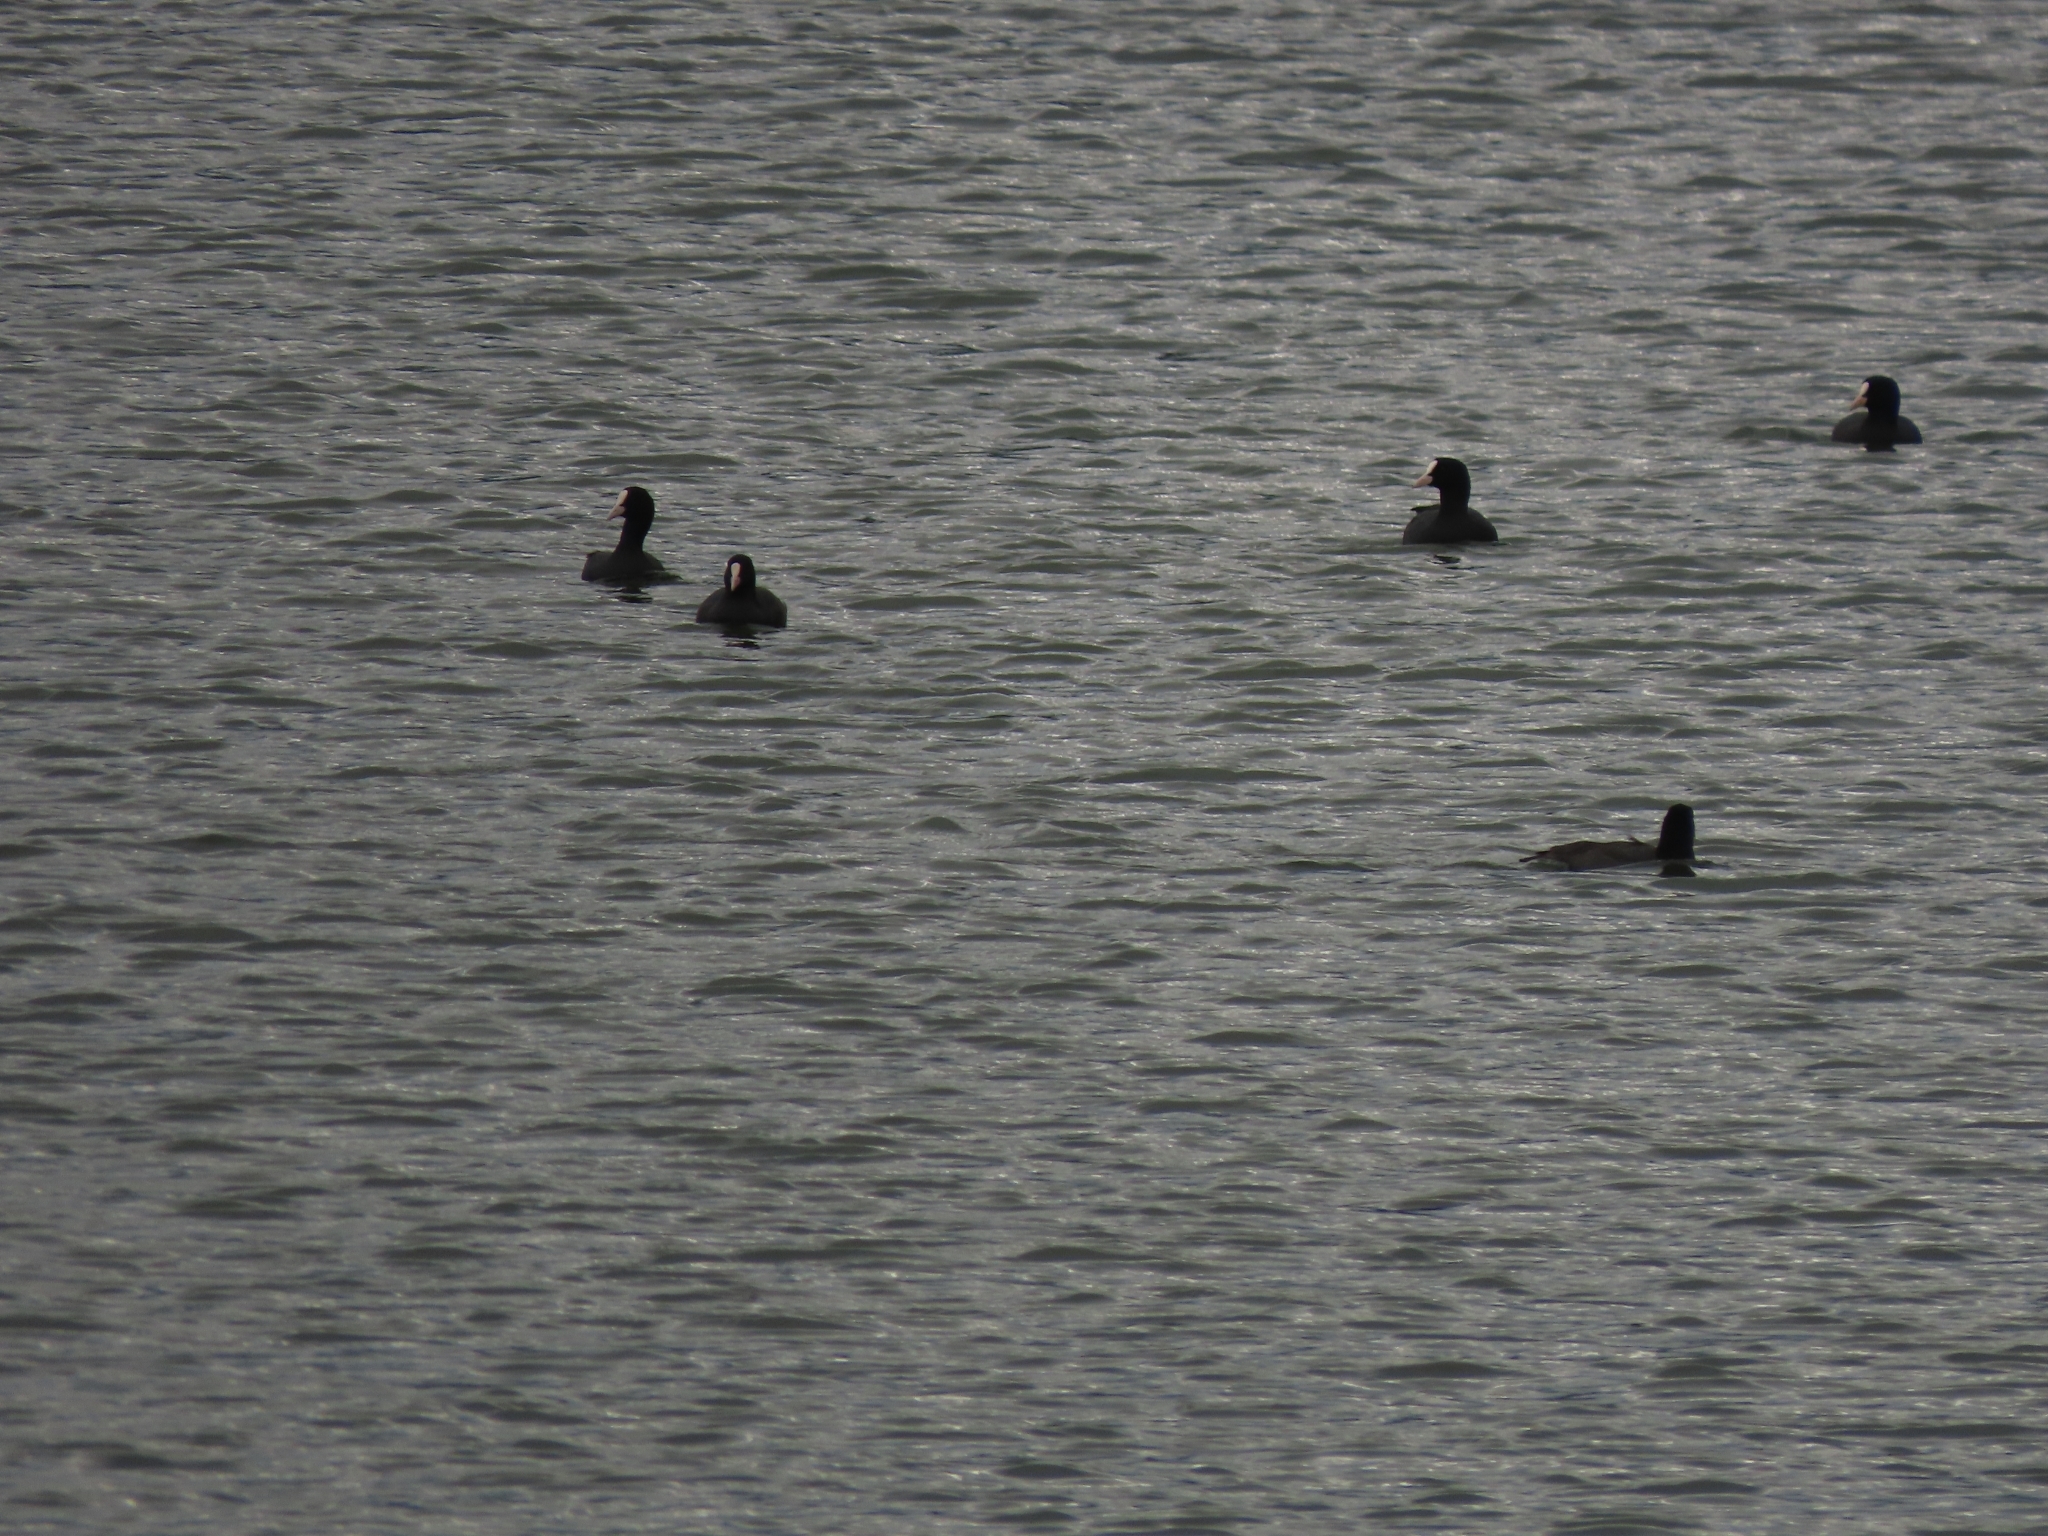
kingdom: Animalia
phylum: Chordata
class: Aves
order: Gruiformes
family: Rallidae
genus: Fulica
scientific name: Fulica atra
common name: Eurasian coot
